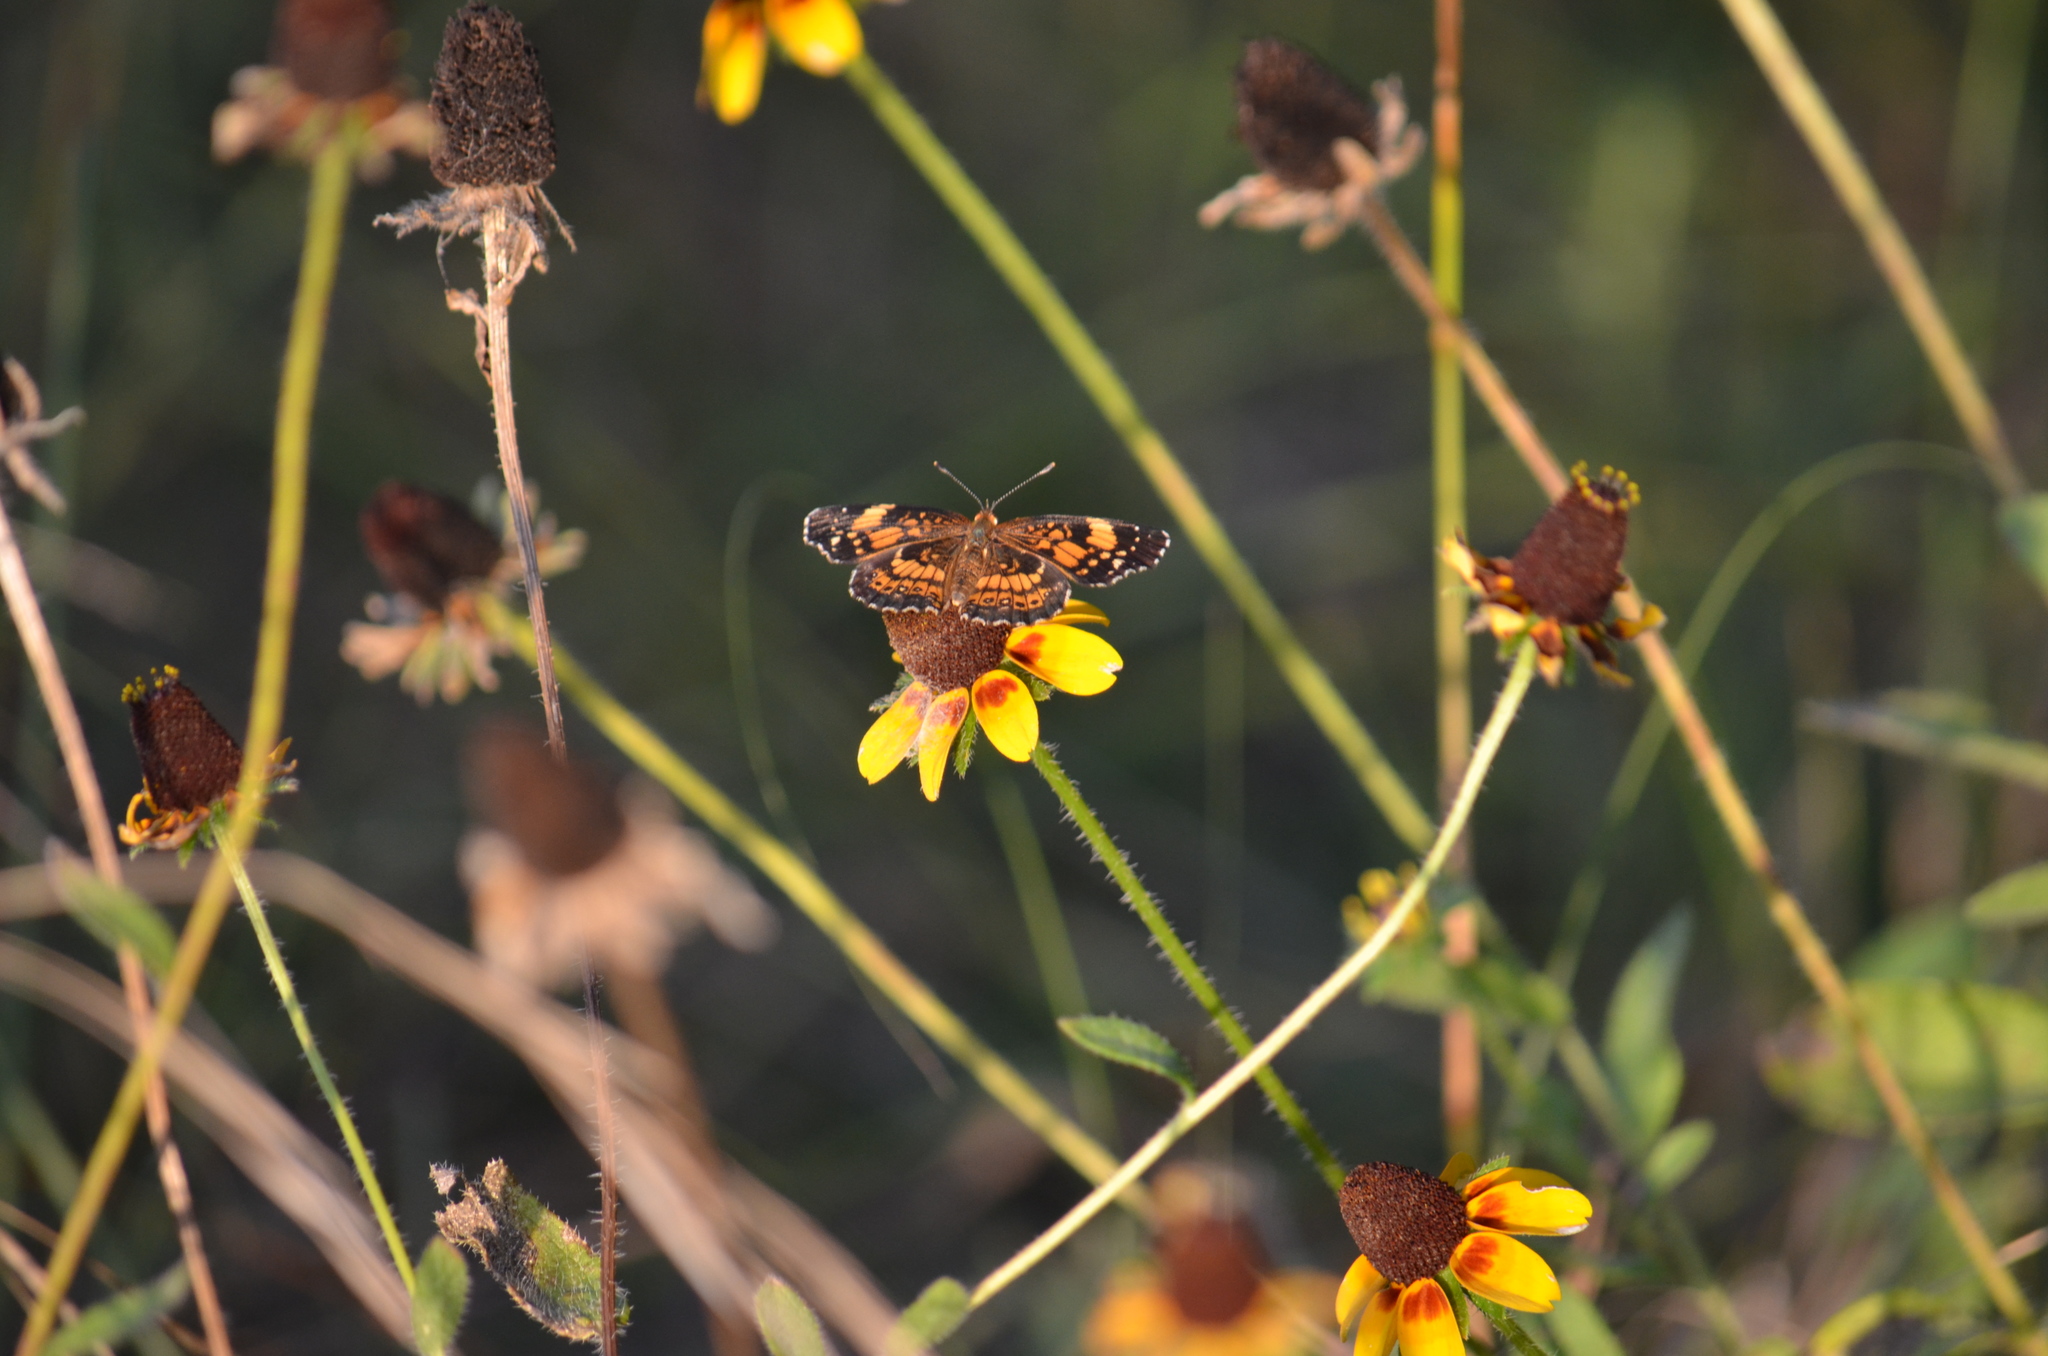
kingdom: Animalia
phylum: Arthropoda
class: Insecta
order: Lepidoptera
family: Nymphalidae
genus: Chlosyne
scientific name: Chlosyne nycteis
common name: Silvery checkerspot
